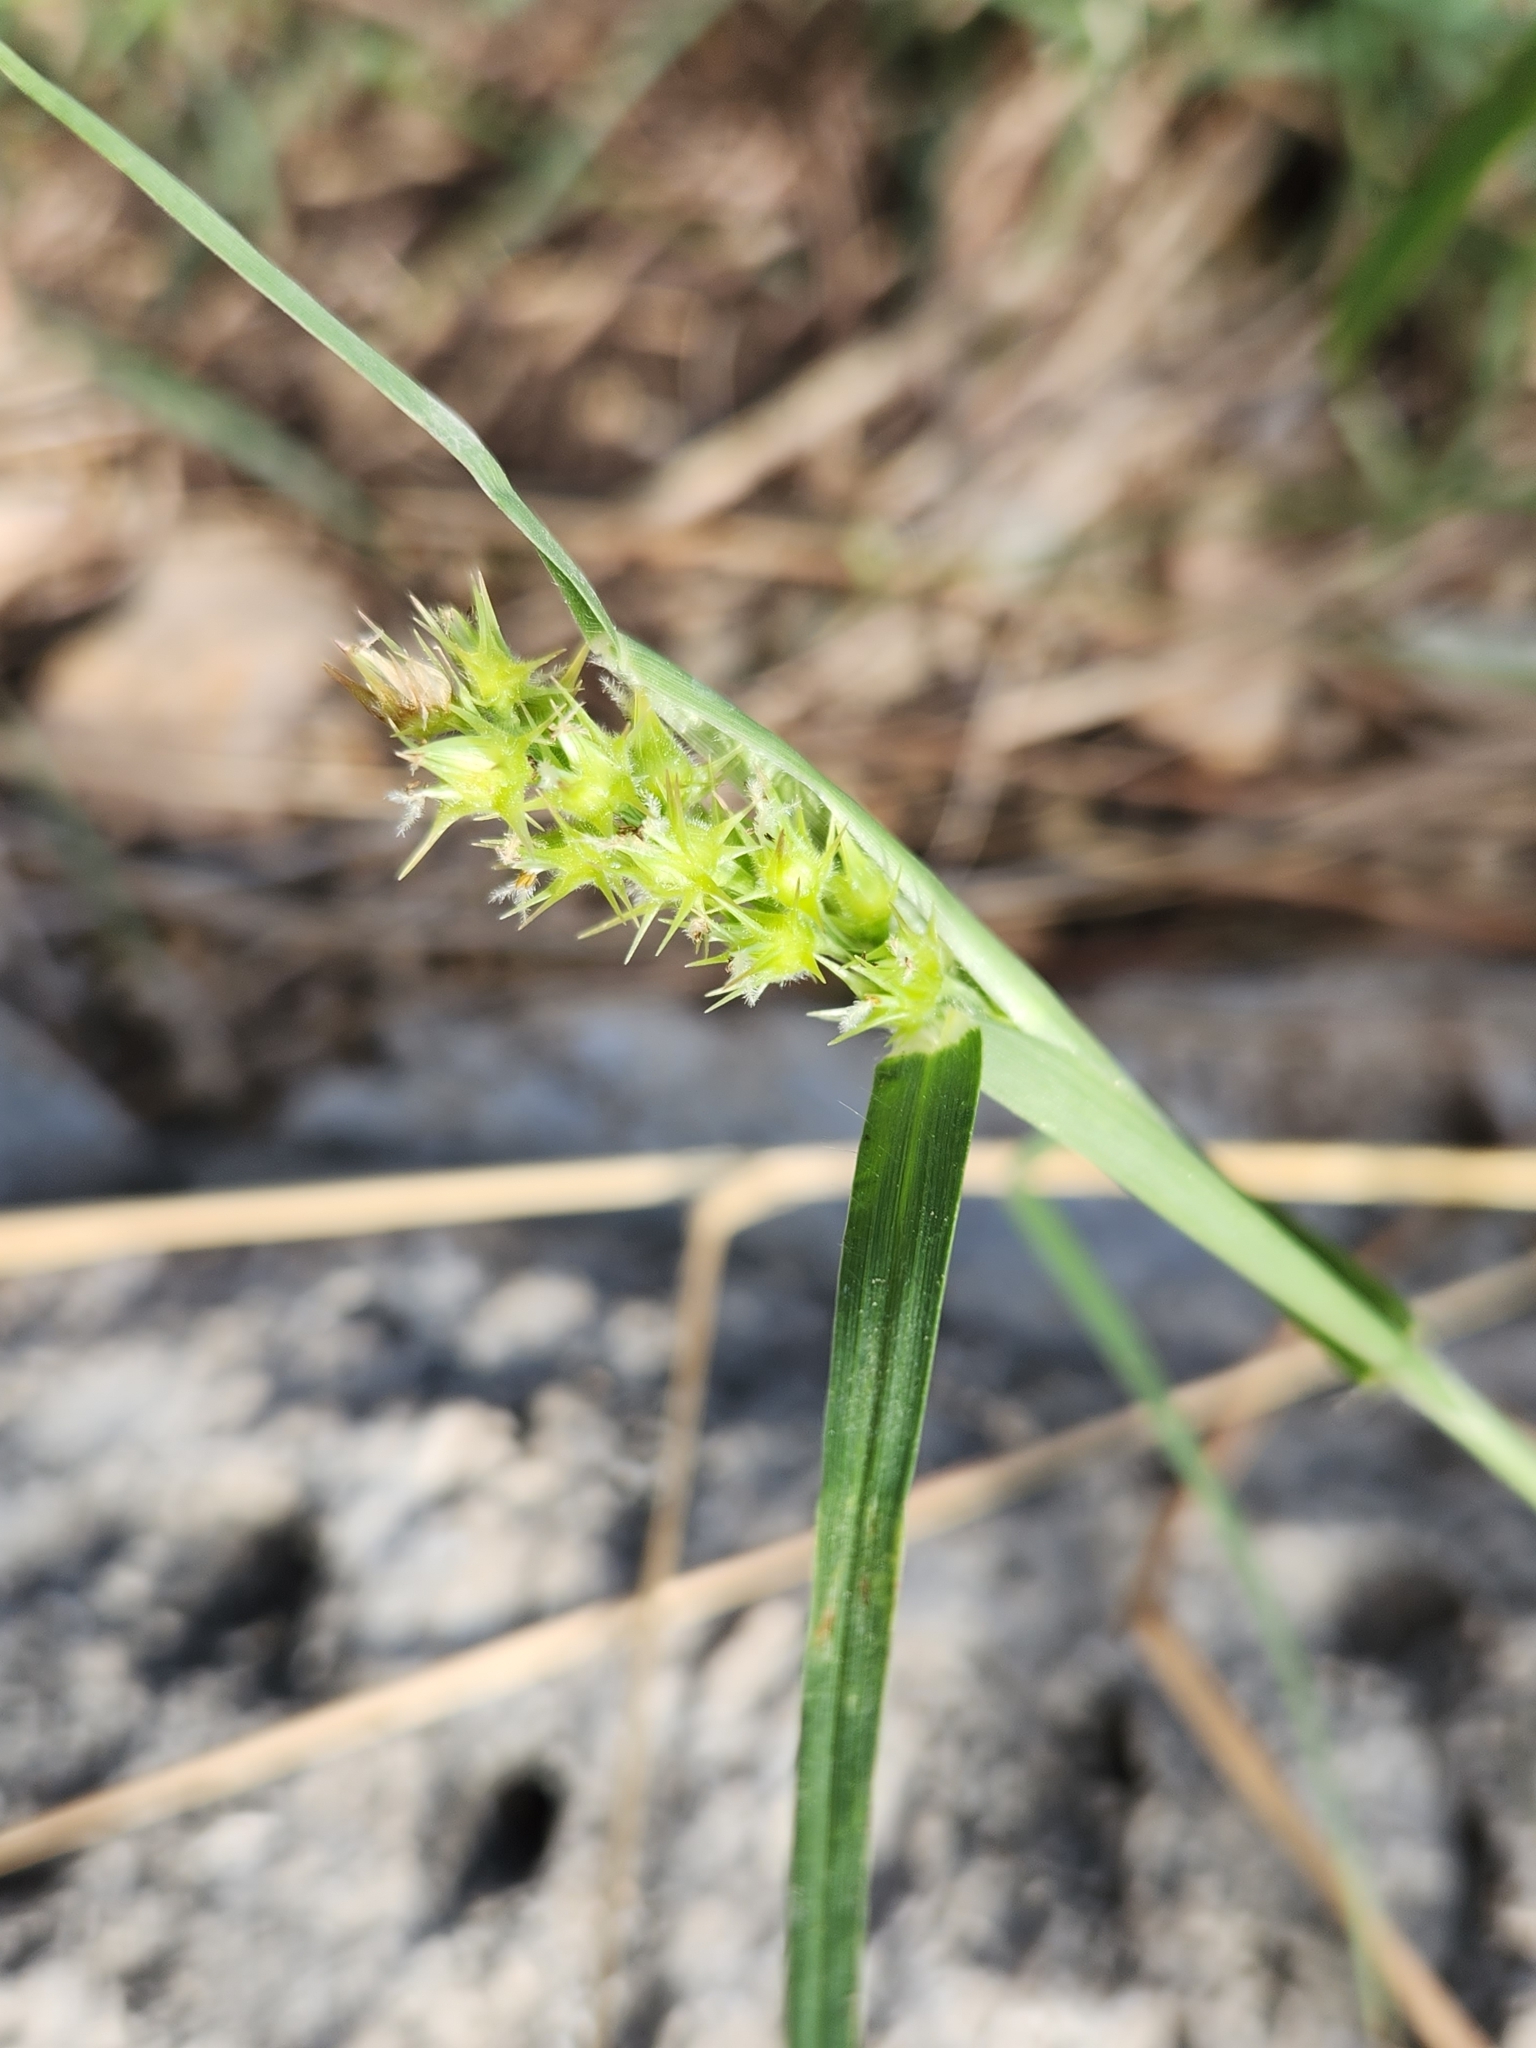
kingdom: Plantae
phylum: Tracheophyta
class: Liliopsida
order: Poales
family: Poaceae
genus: Cenchrus
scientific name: Cenchrus spinifex
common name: Coast sandbur
